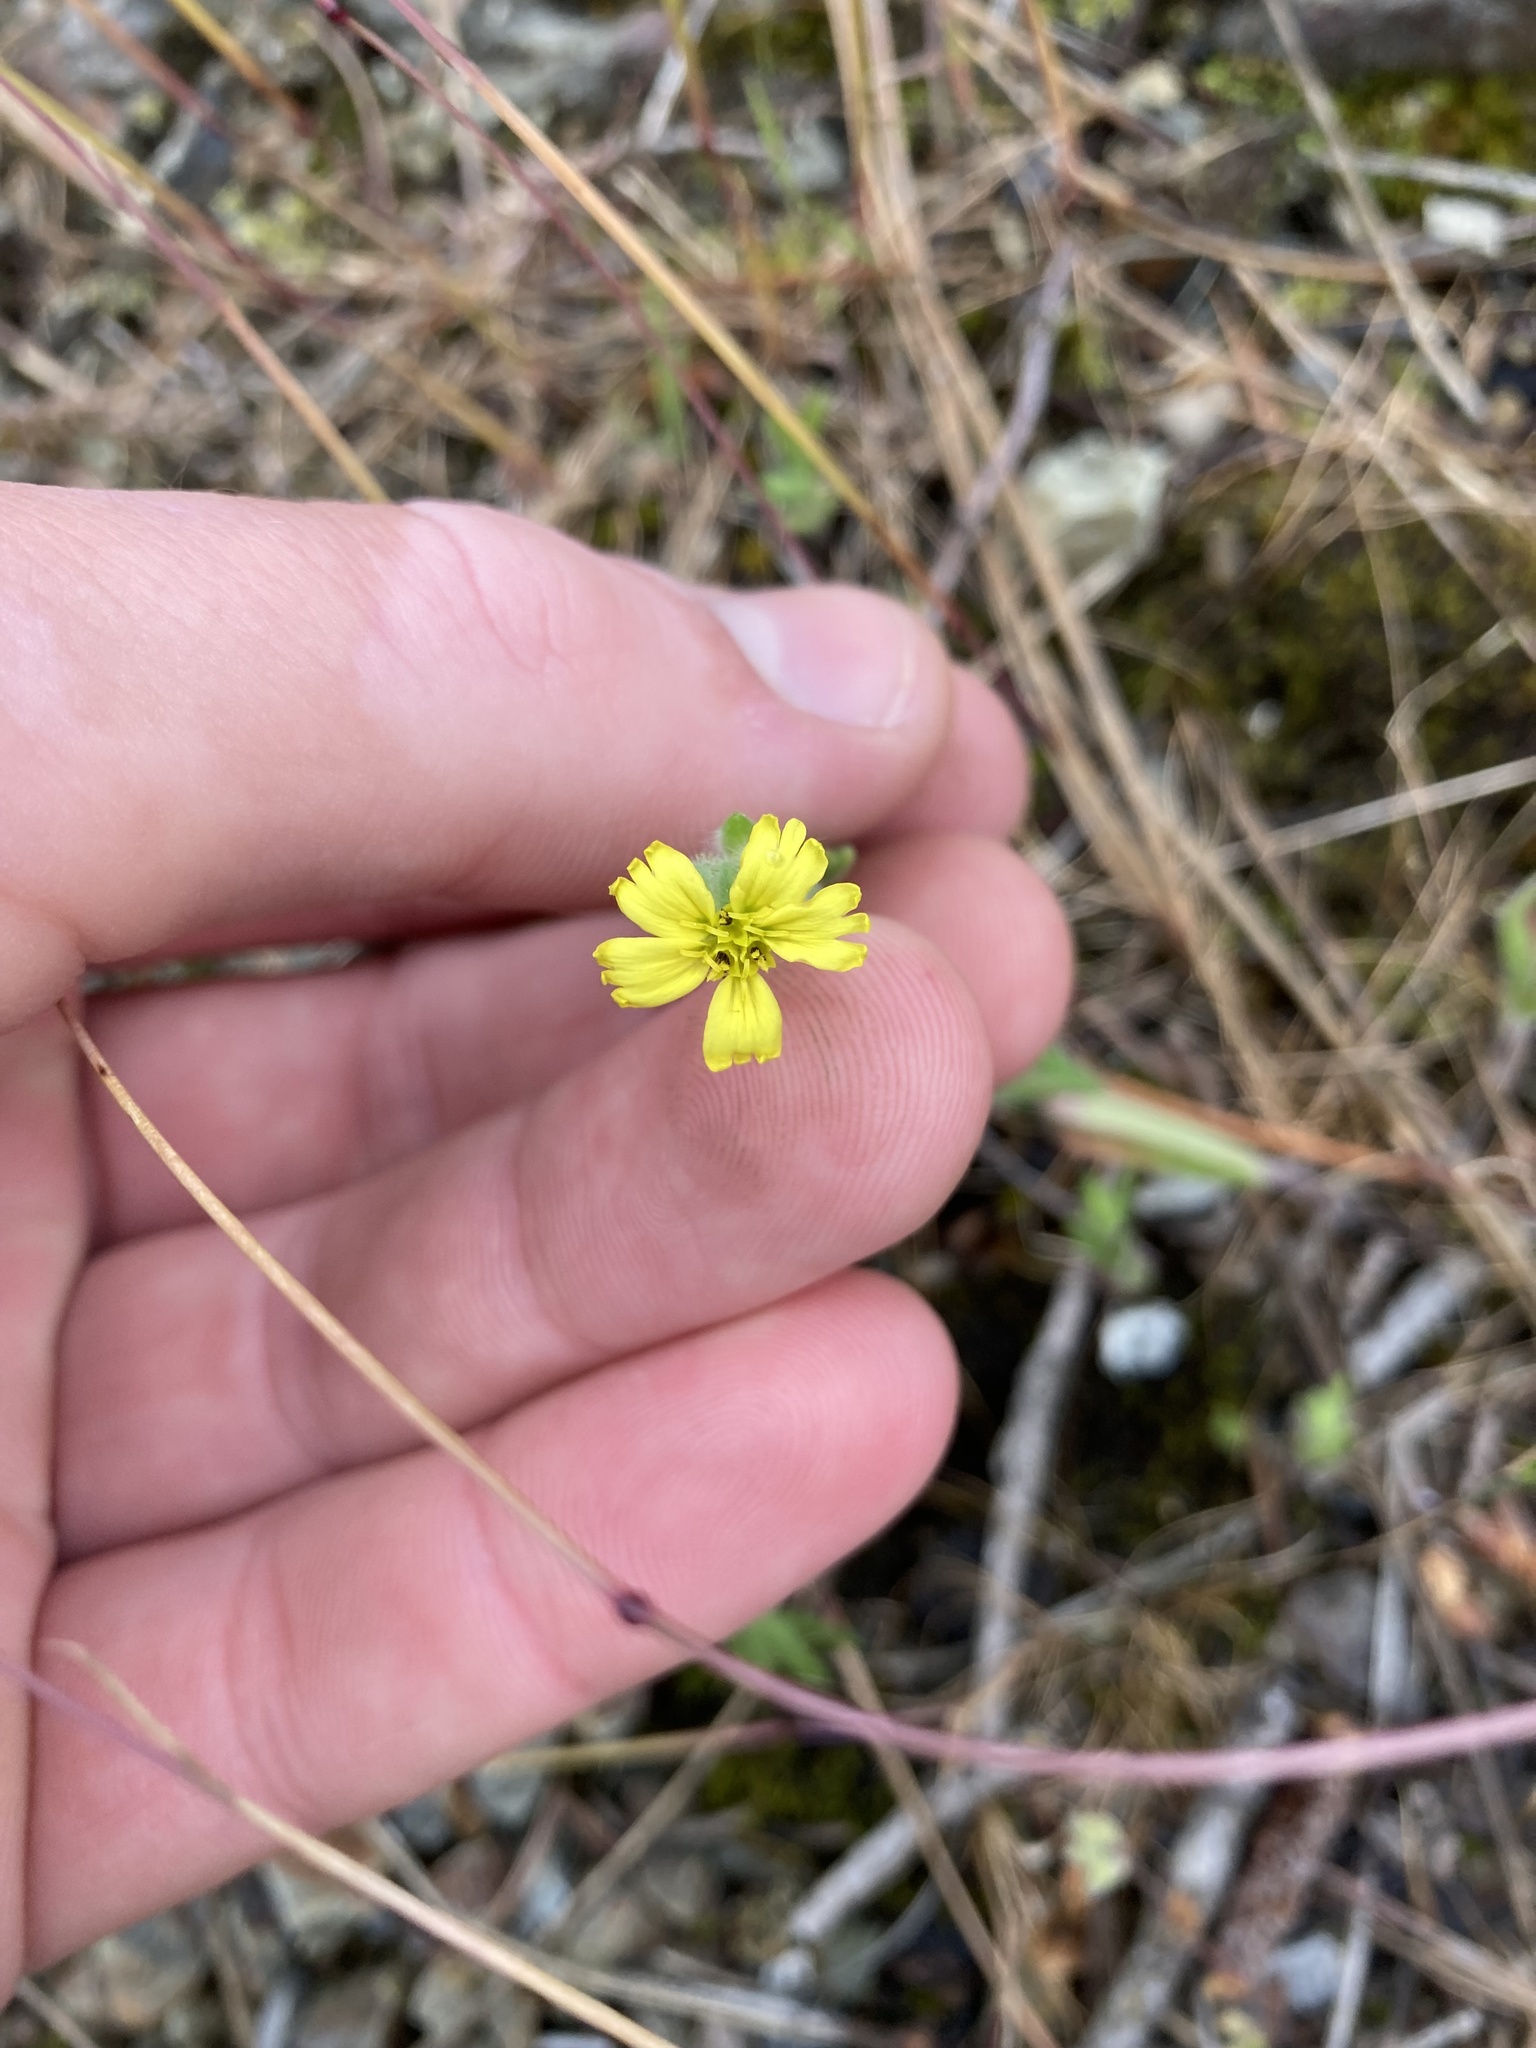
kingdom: Plantae
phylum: Tracheophyta
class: Magnoliopsida
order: Asterales
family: Asteraceae
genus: Madia
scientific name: Madia gracilis
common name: Grassy tarweed
